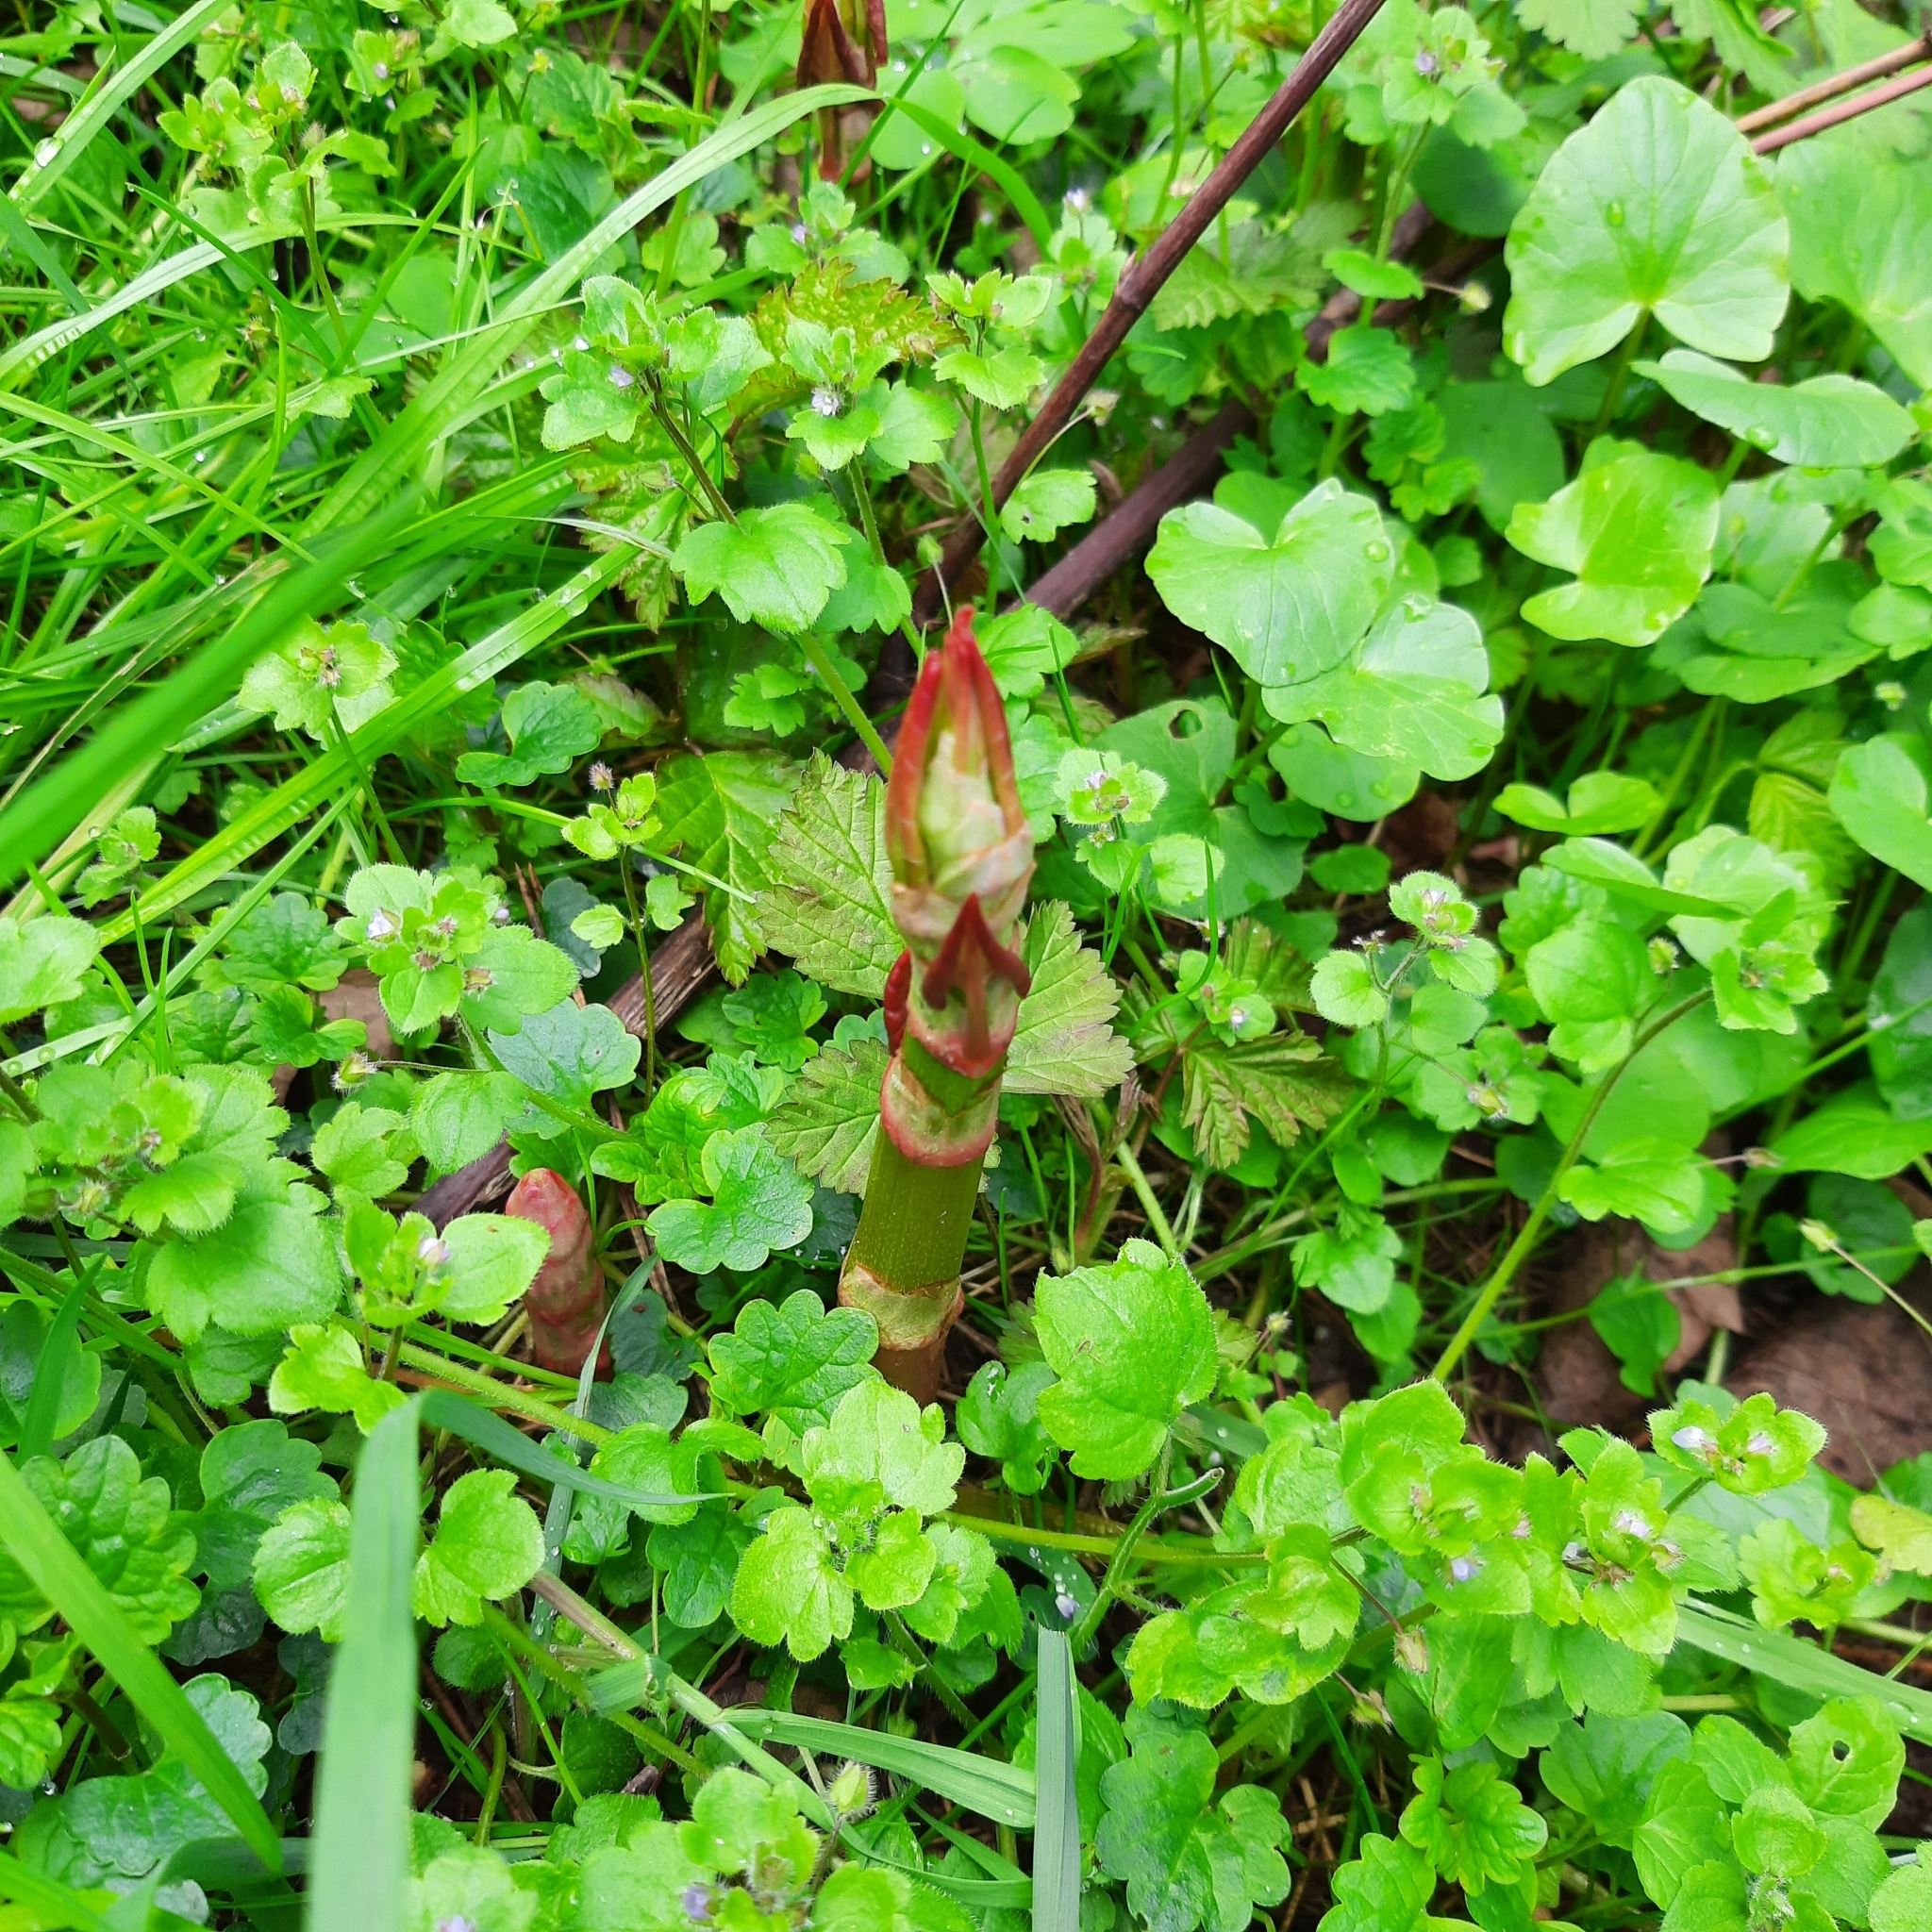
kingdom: Plantae
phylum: Tracheophyta
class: Magnoliopsida
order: Caryophyllales
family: Polygonaceae
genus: Reynoutria
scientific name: Reynoutria
